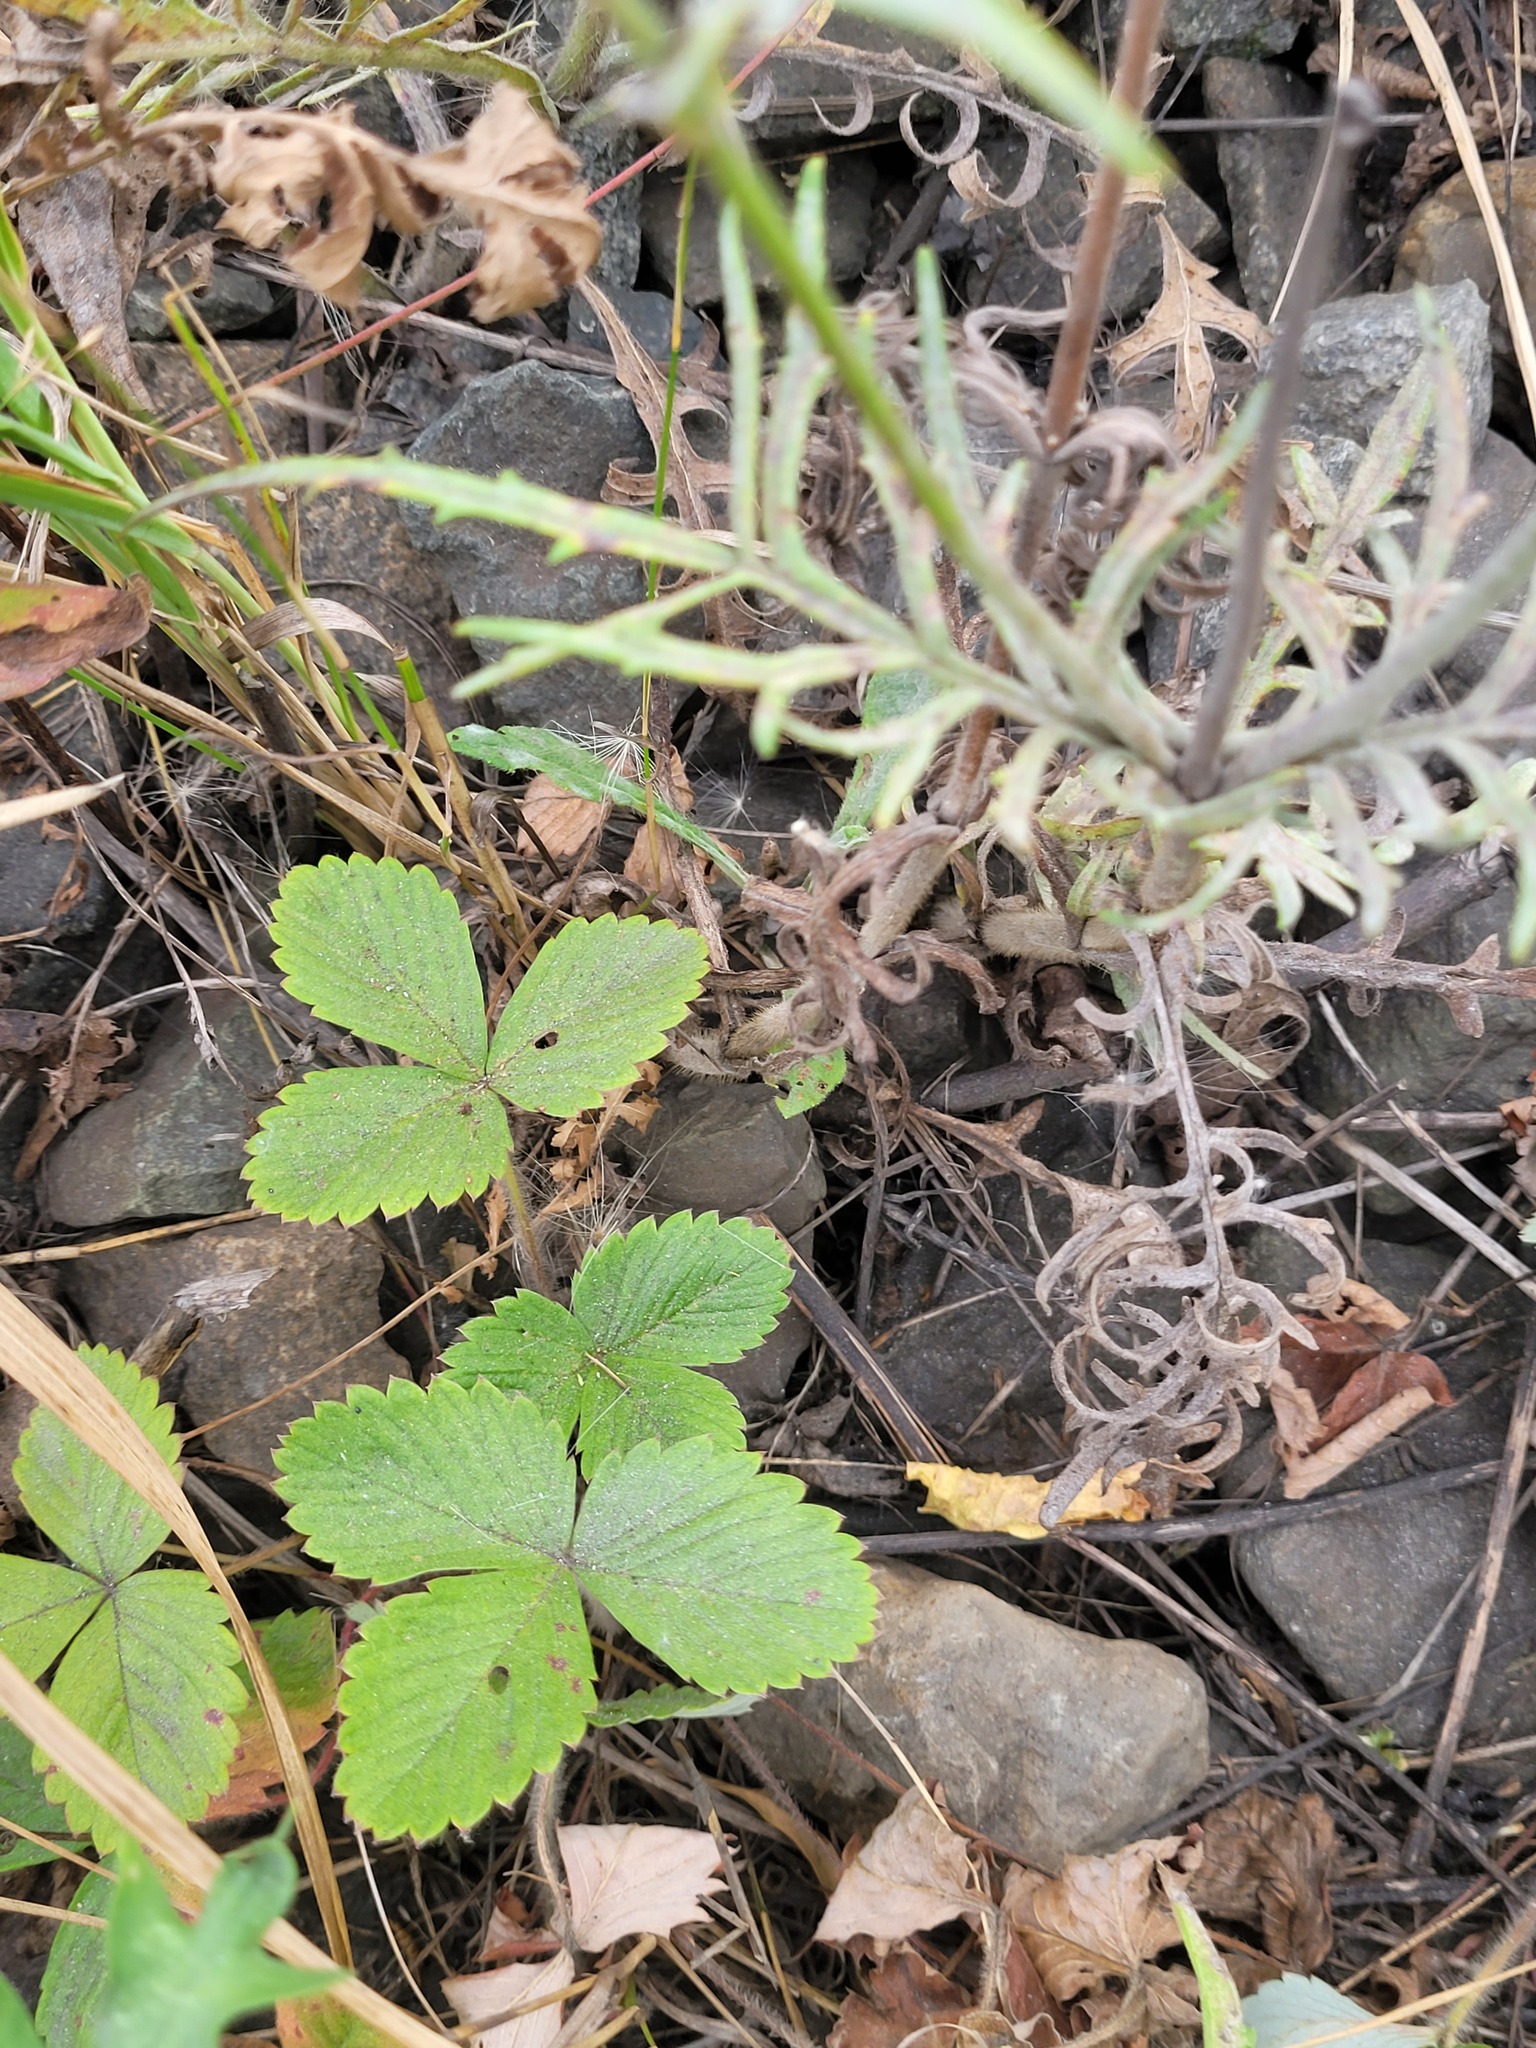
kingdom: Plantae
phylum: Tracheophyta
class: Magnoliopsida
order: Rosales
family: Rosaceae
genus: Fragaria
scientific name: Fragaria vesca
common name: Wild strawberry
